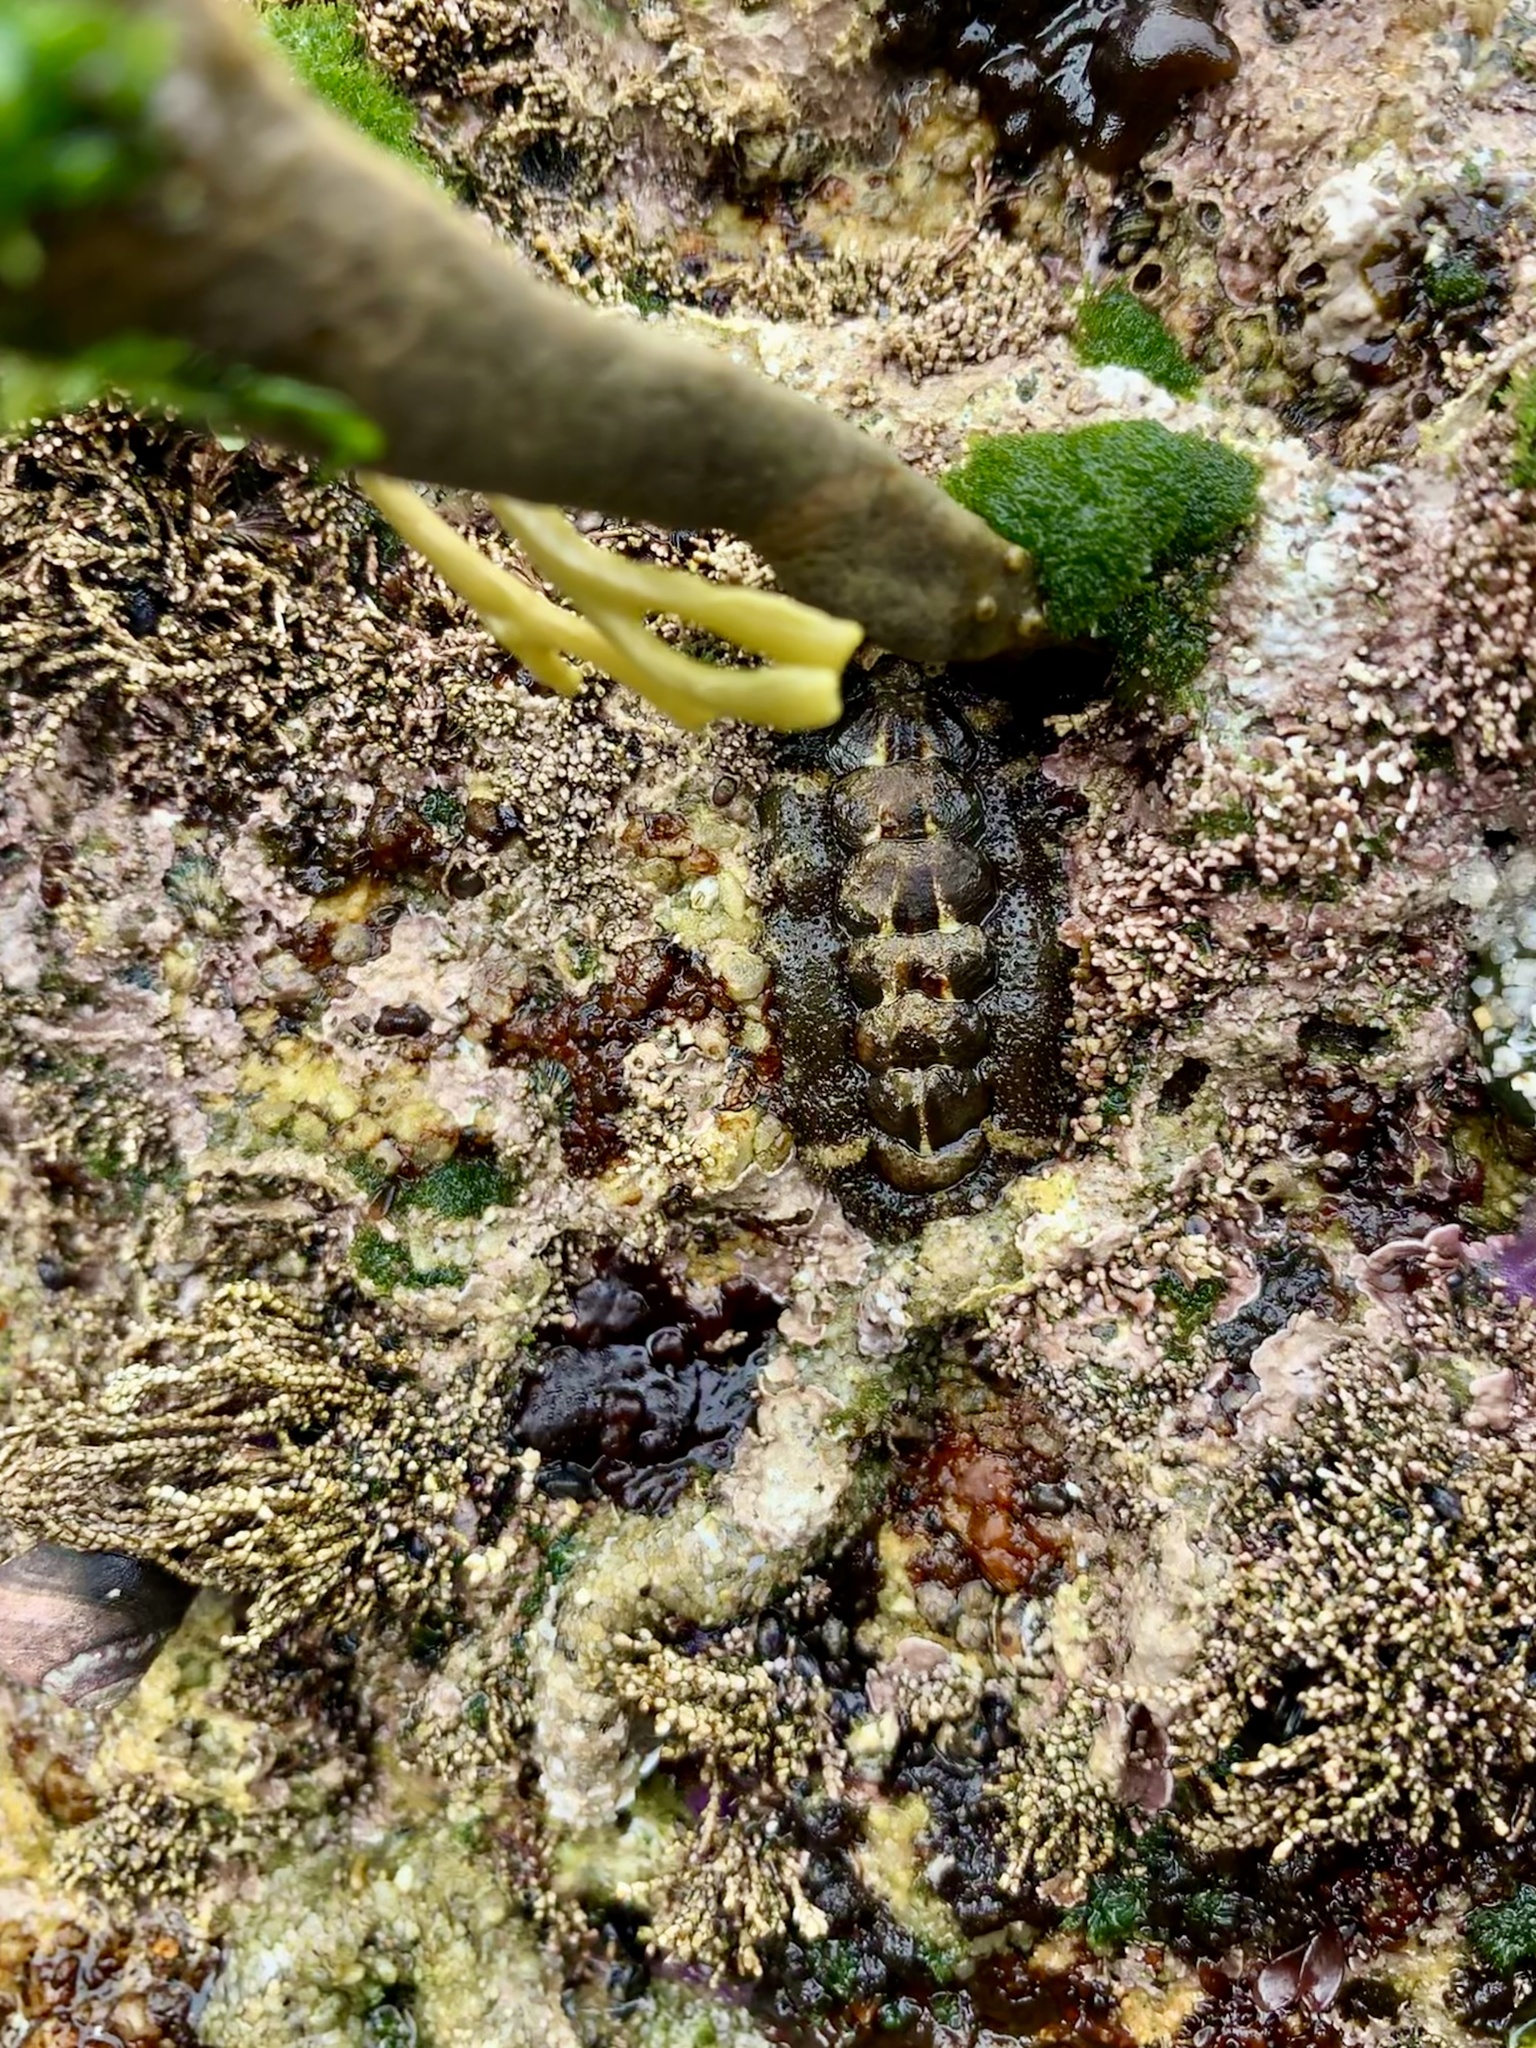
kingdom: Animalia
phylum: Mollusca
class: Polyplacophora
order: Chitonida
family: Tonicellidae
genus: Nuttallina
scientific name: Nuttallina californica
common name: California nuttall chiton
